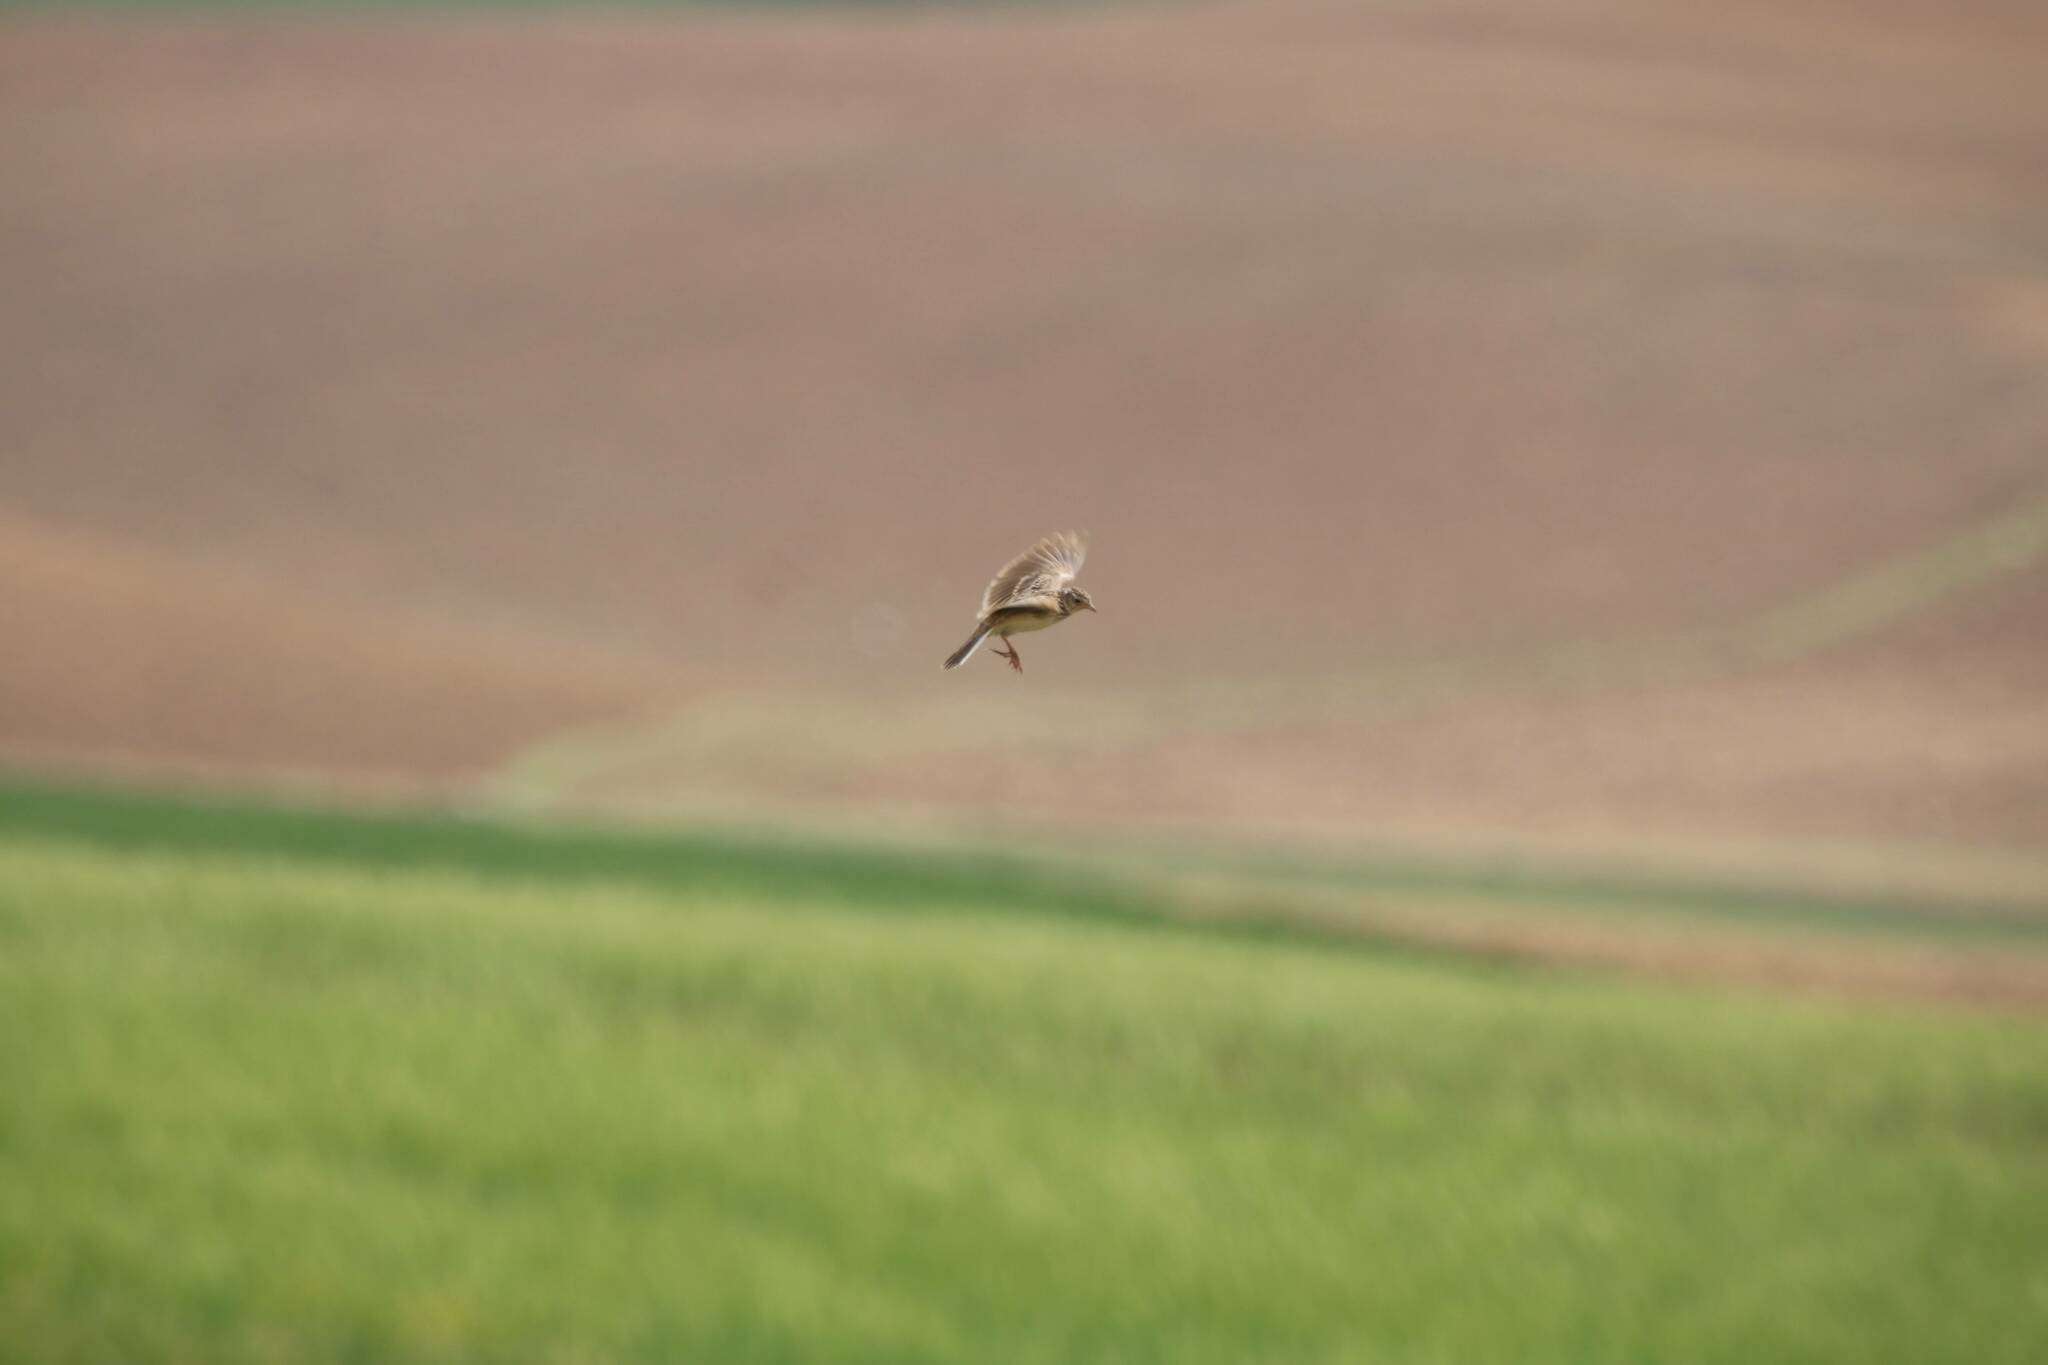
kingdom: Animalia
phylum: Chordata
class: Aves
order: Passeriformes
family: Alaudidae
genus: Alauda
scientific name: Alauda arvensis
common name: Eurasian skylark
